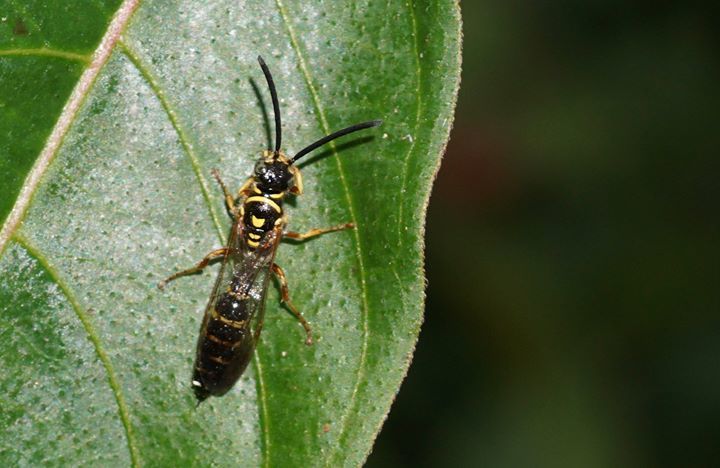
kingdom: Animalia
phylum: Arthropoda
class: Insecta
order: Hymenoptera
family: Tiphiidae
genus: Myzinum
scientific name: Myzinum dubiosum
